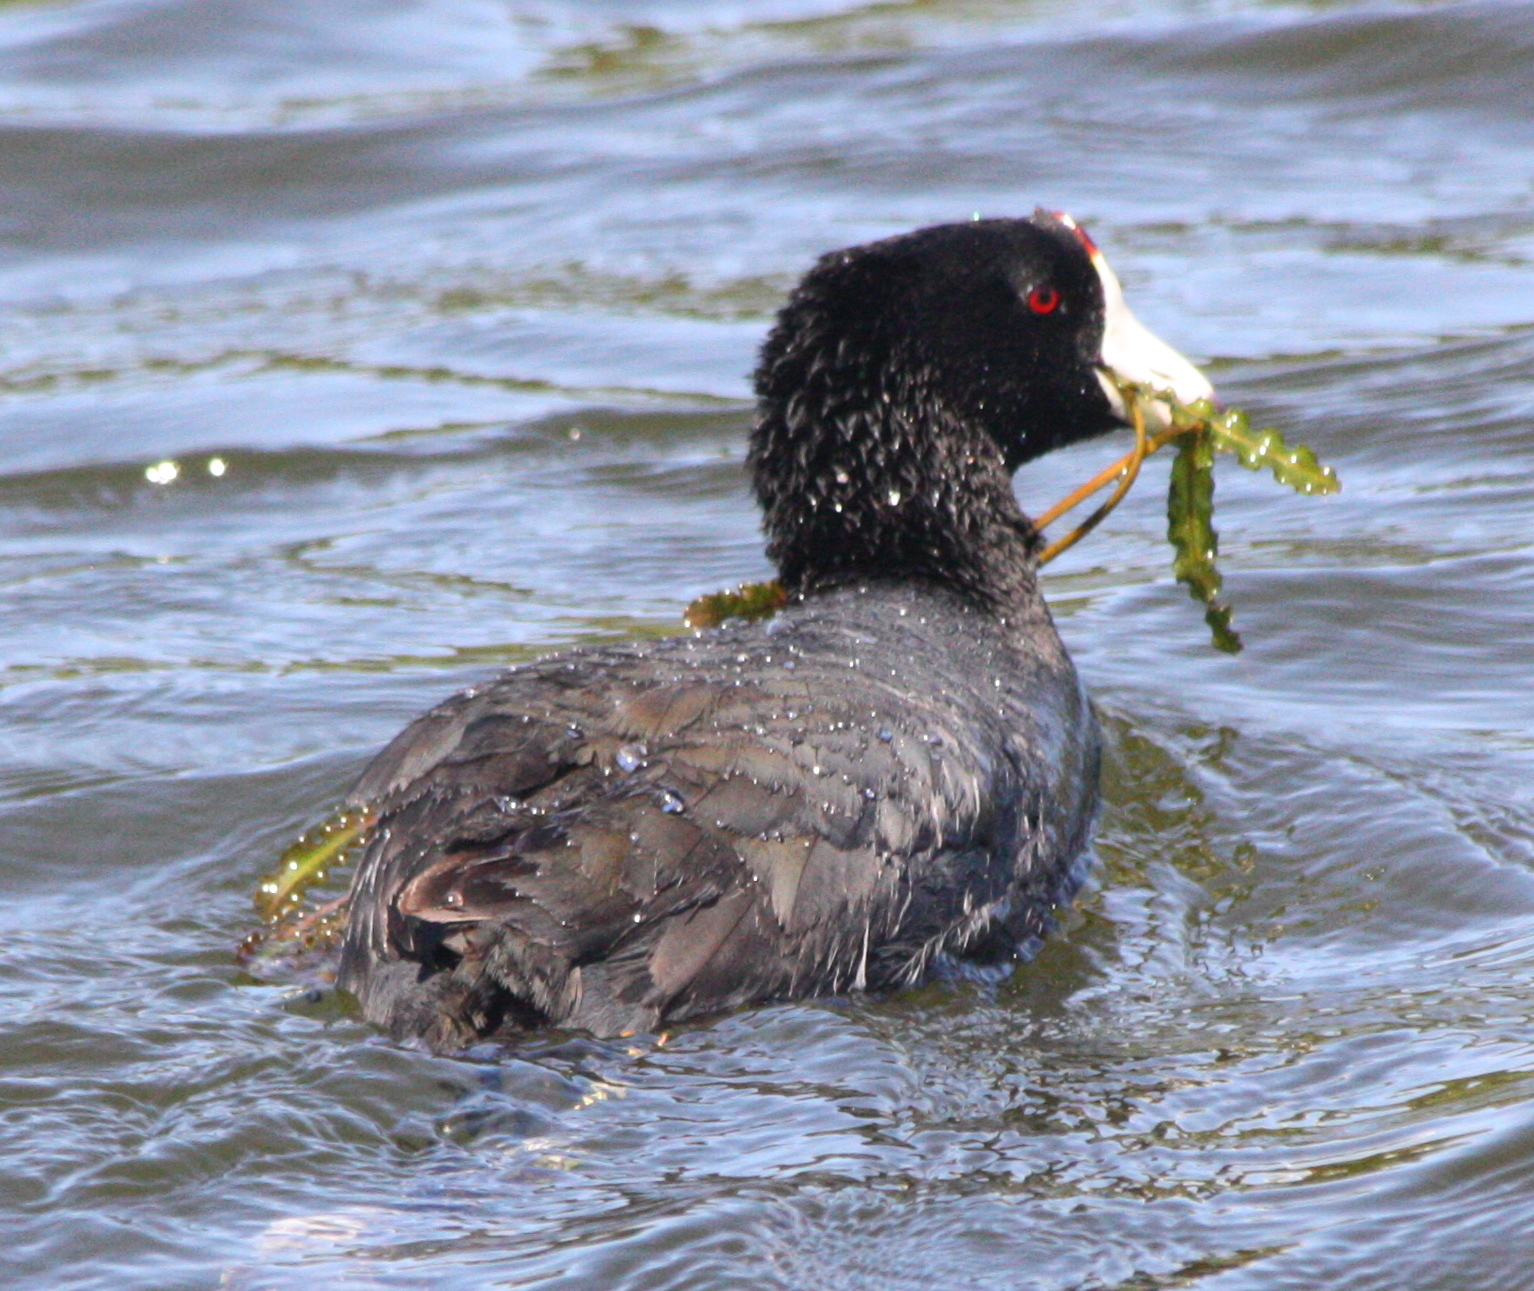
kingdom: Animalia
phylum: Chordata
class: Aves
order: Gruiformes
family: Rallidae
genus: Fulica
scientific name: Fulica americana
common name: American coot
